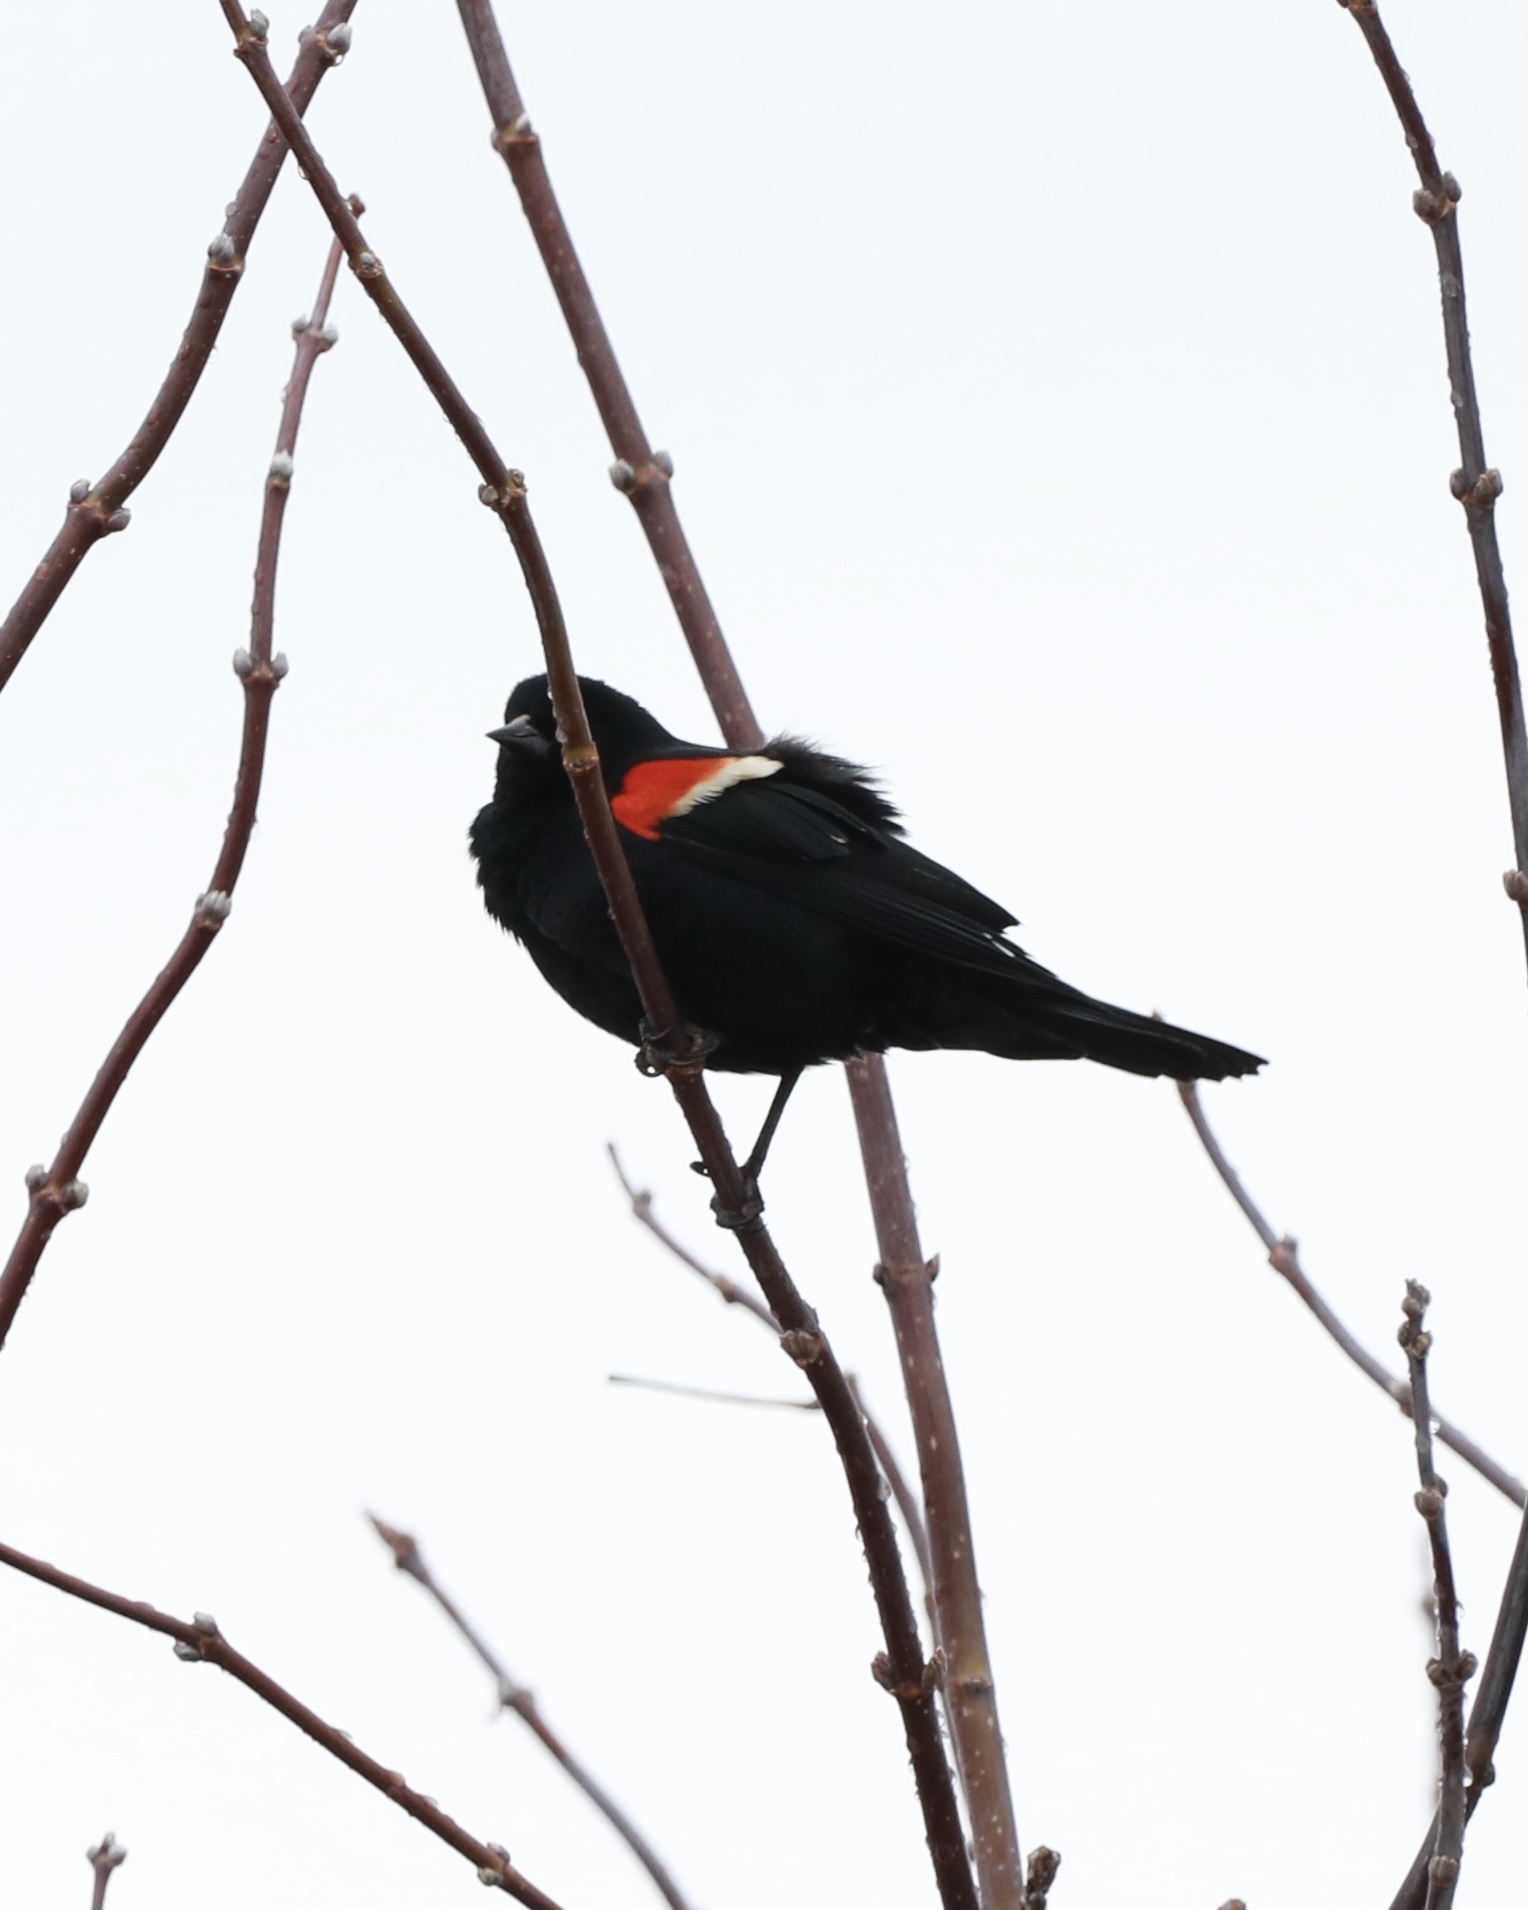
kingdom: Animalia
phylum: Chordata
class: Aves
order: Passeriformes
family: Icteridae
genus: Agelaius
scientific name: Agelaius phoeniceus
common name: Red-winged blackbird
